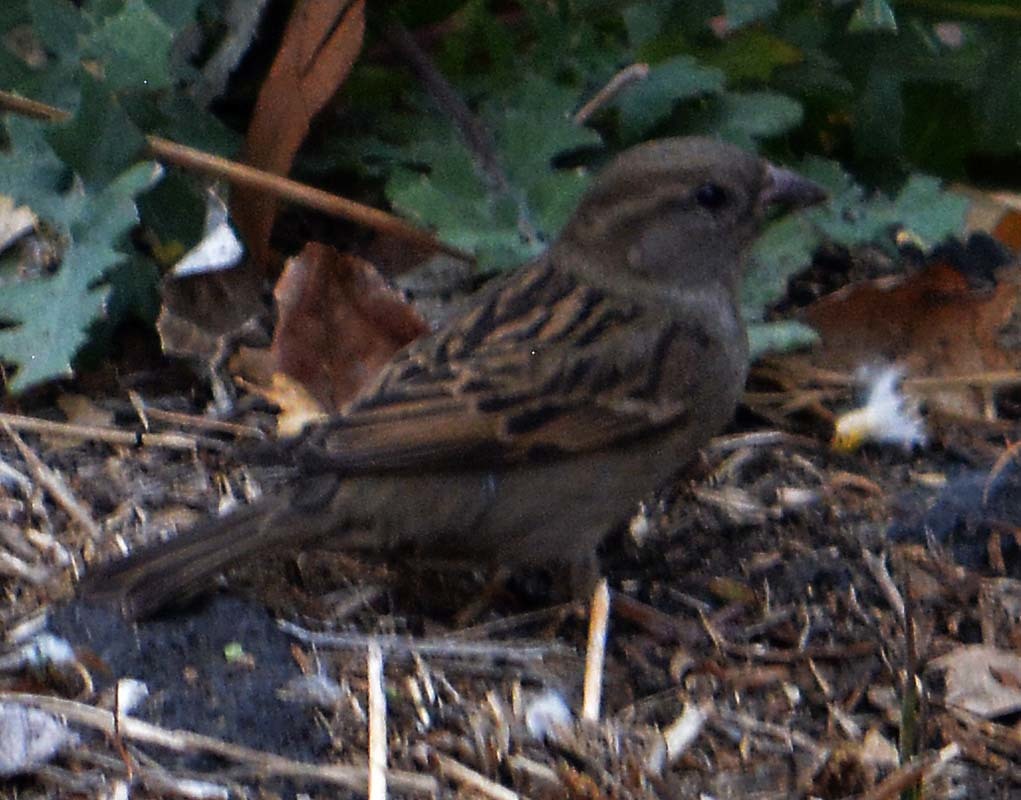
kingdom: Animalia
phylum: Chordata
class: Aves
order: Passeriformes
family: Passeridae
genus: Passer
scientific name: Passer domesticus
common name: House sparrow
